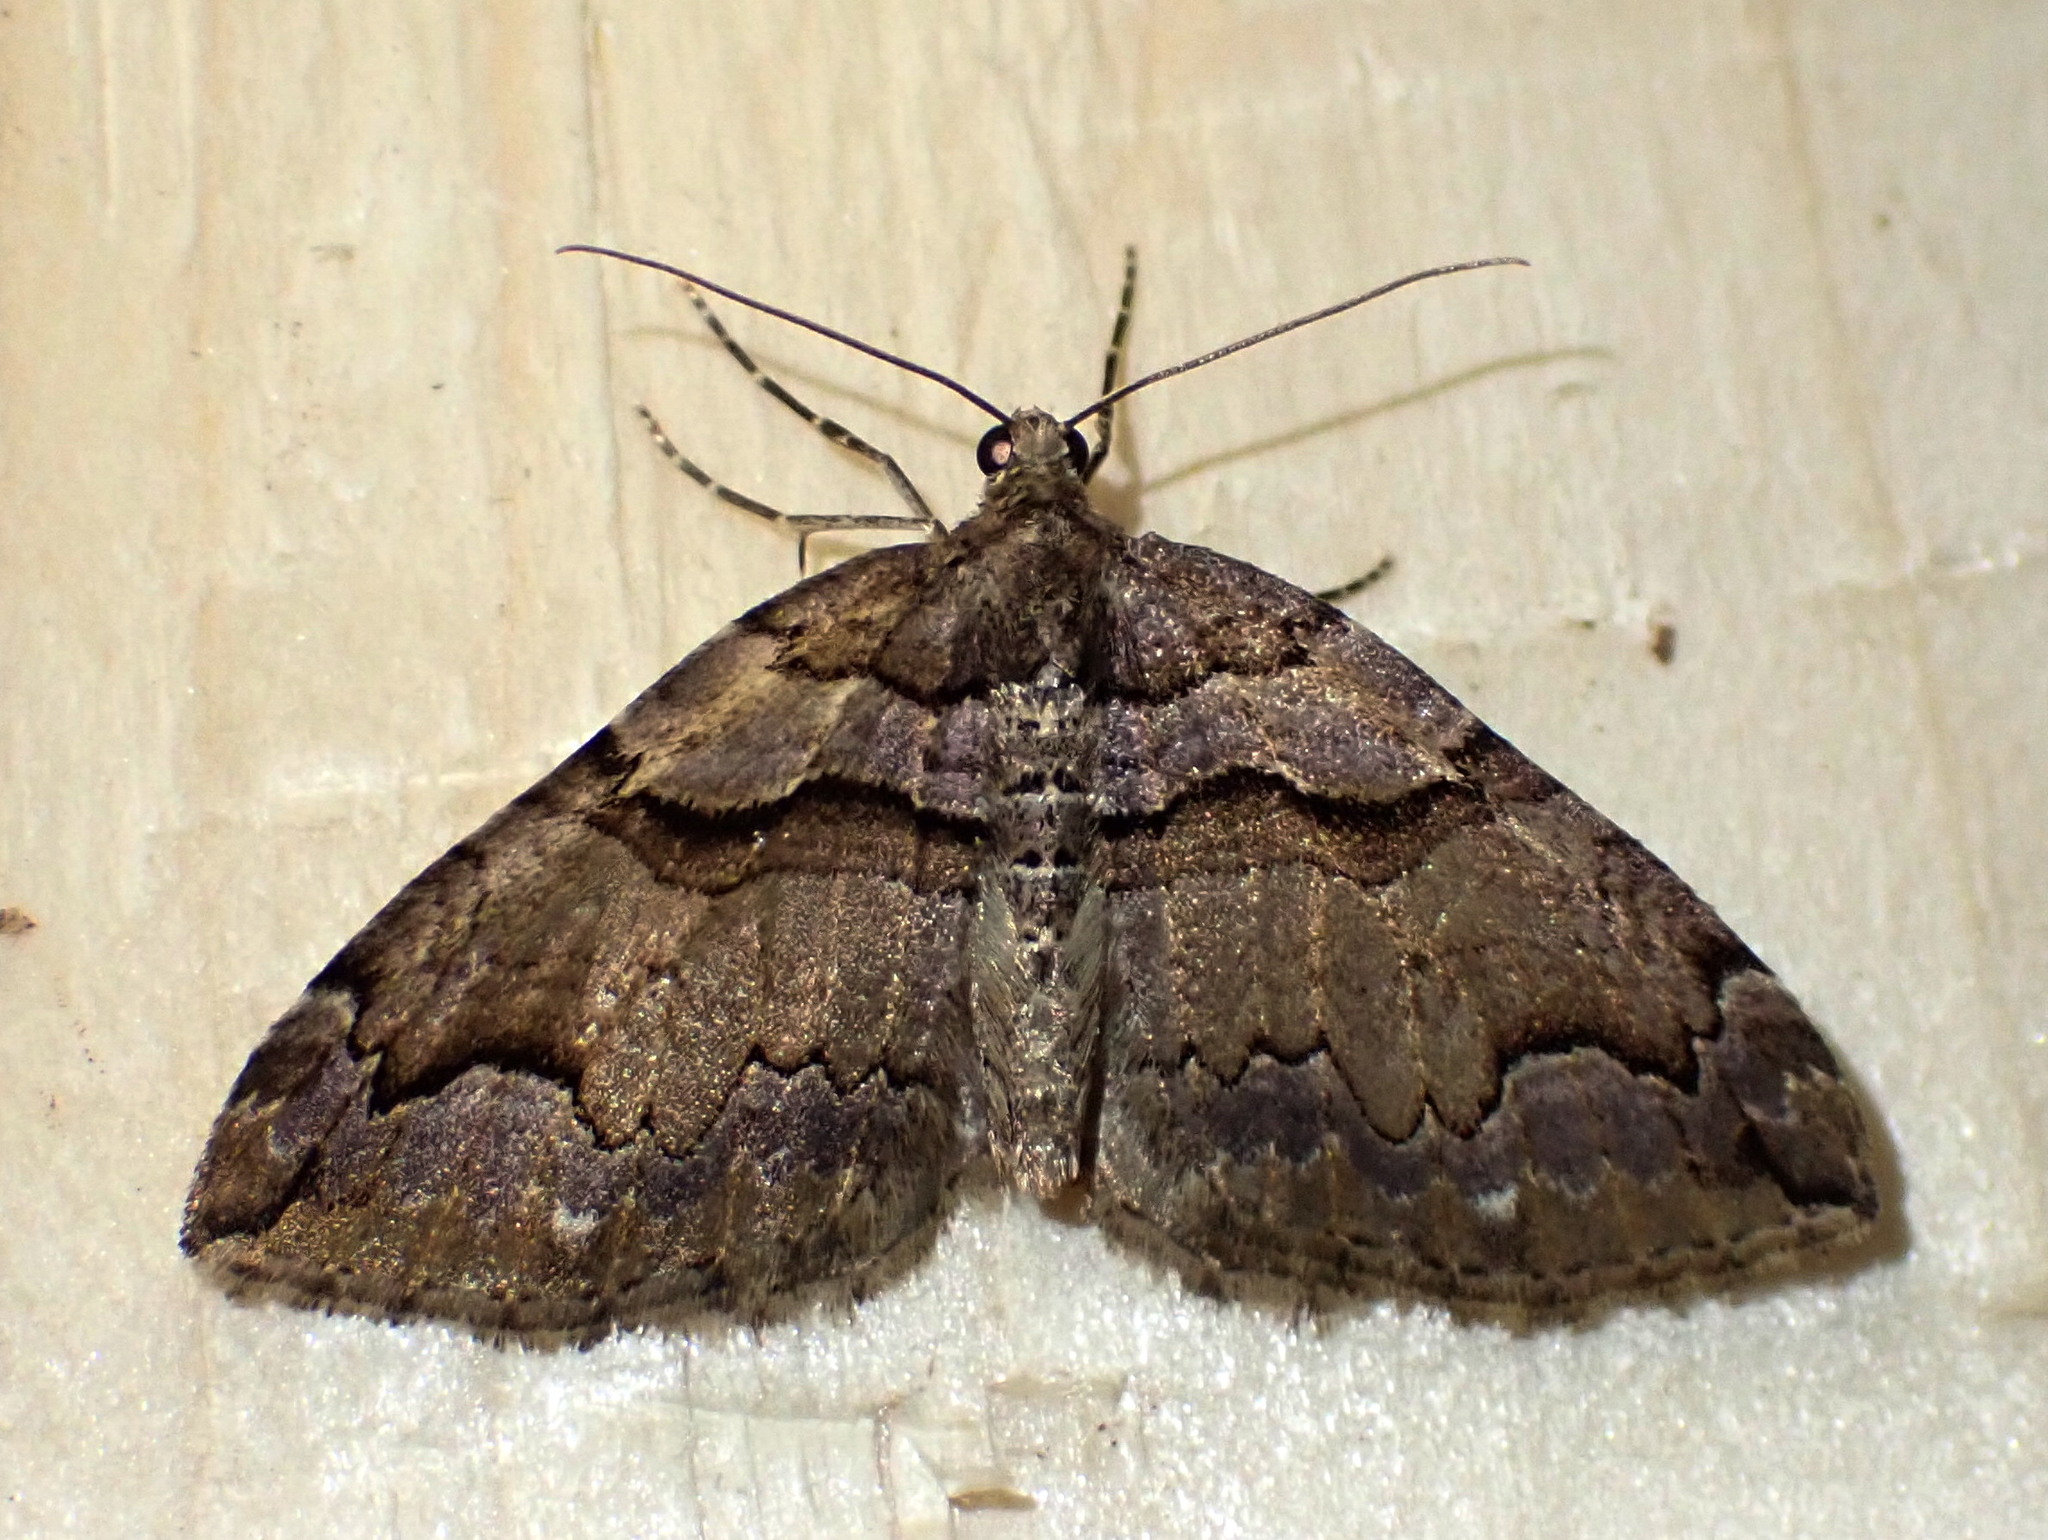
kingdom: Animalia
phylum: Arthropoda
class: Insecta
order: Lepidoptera
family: Geometridae
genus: Anticlea
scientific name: Anticlea vasiliata
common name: Variable carpet
